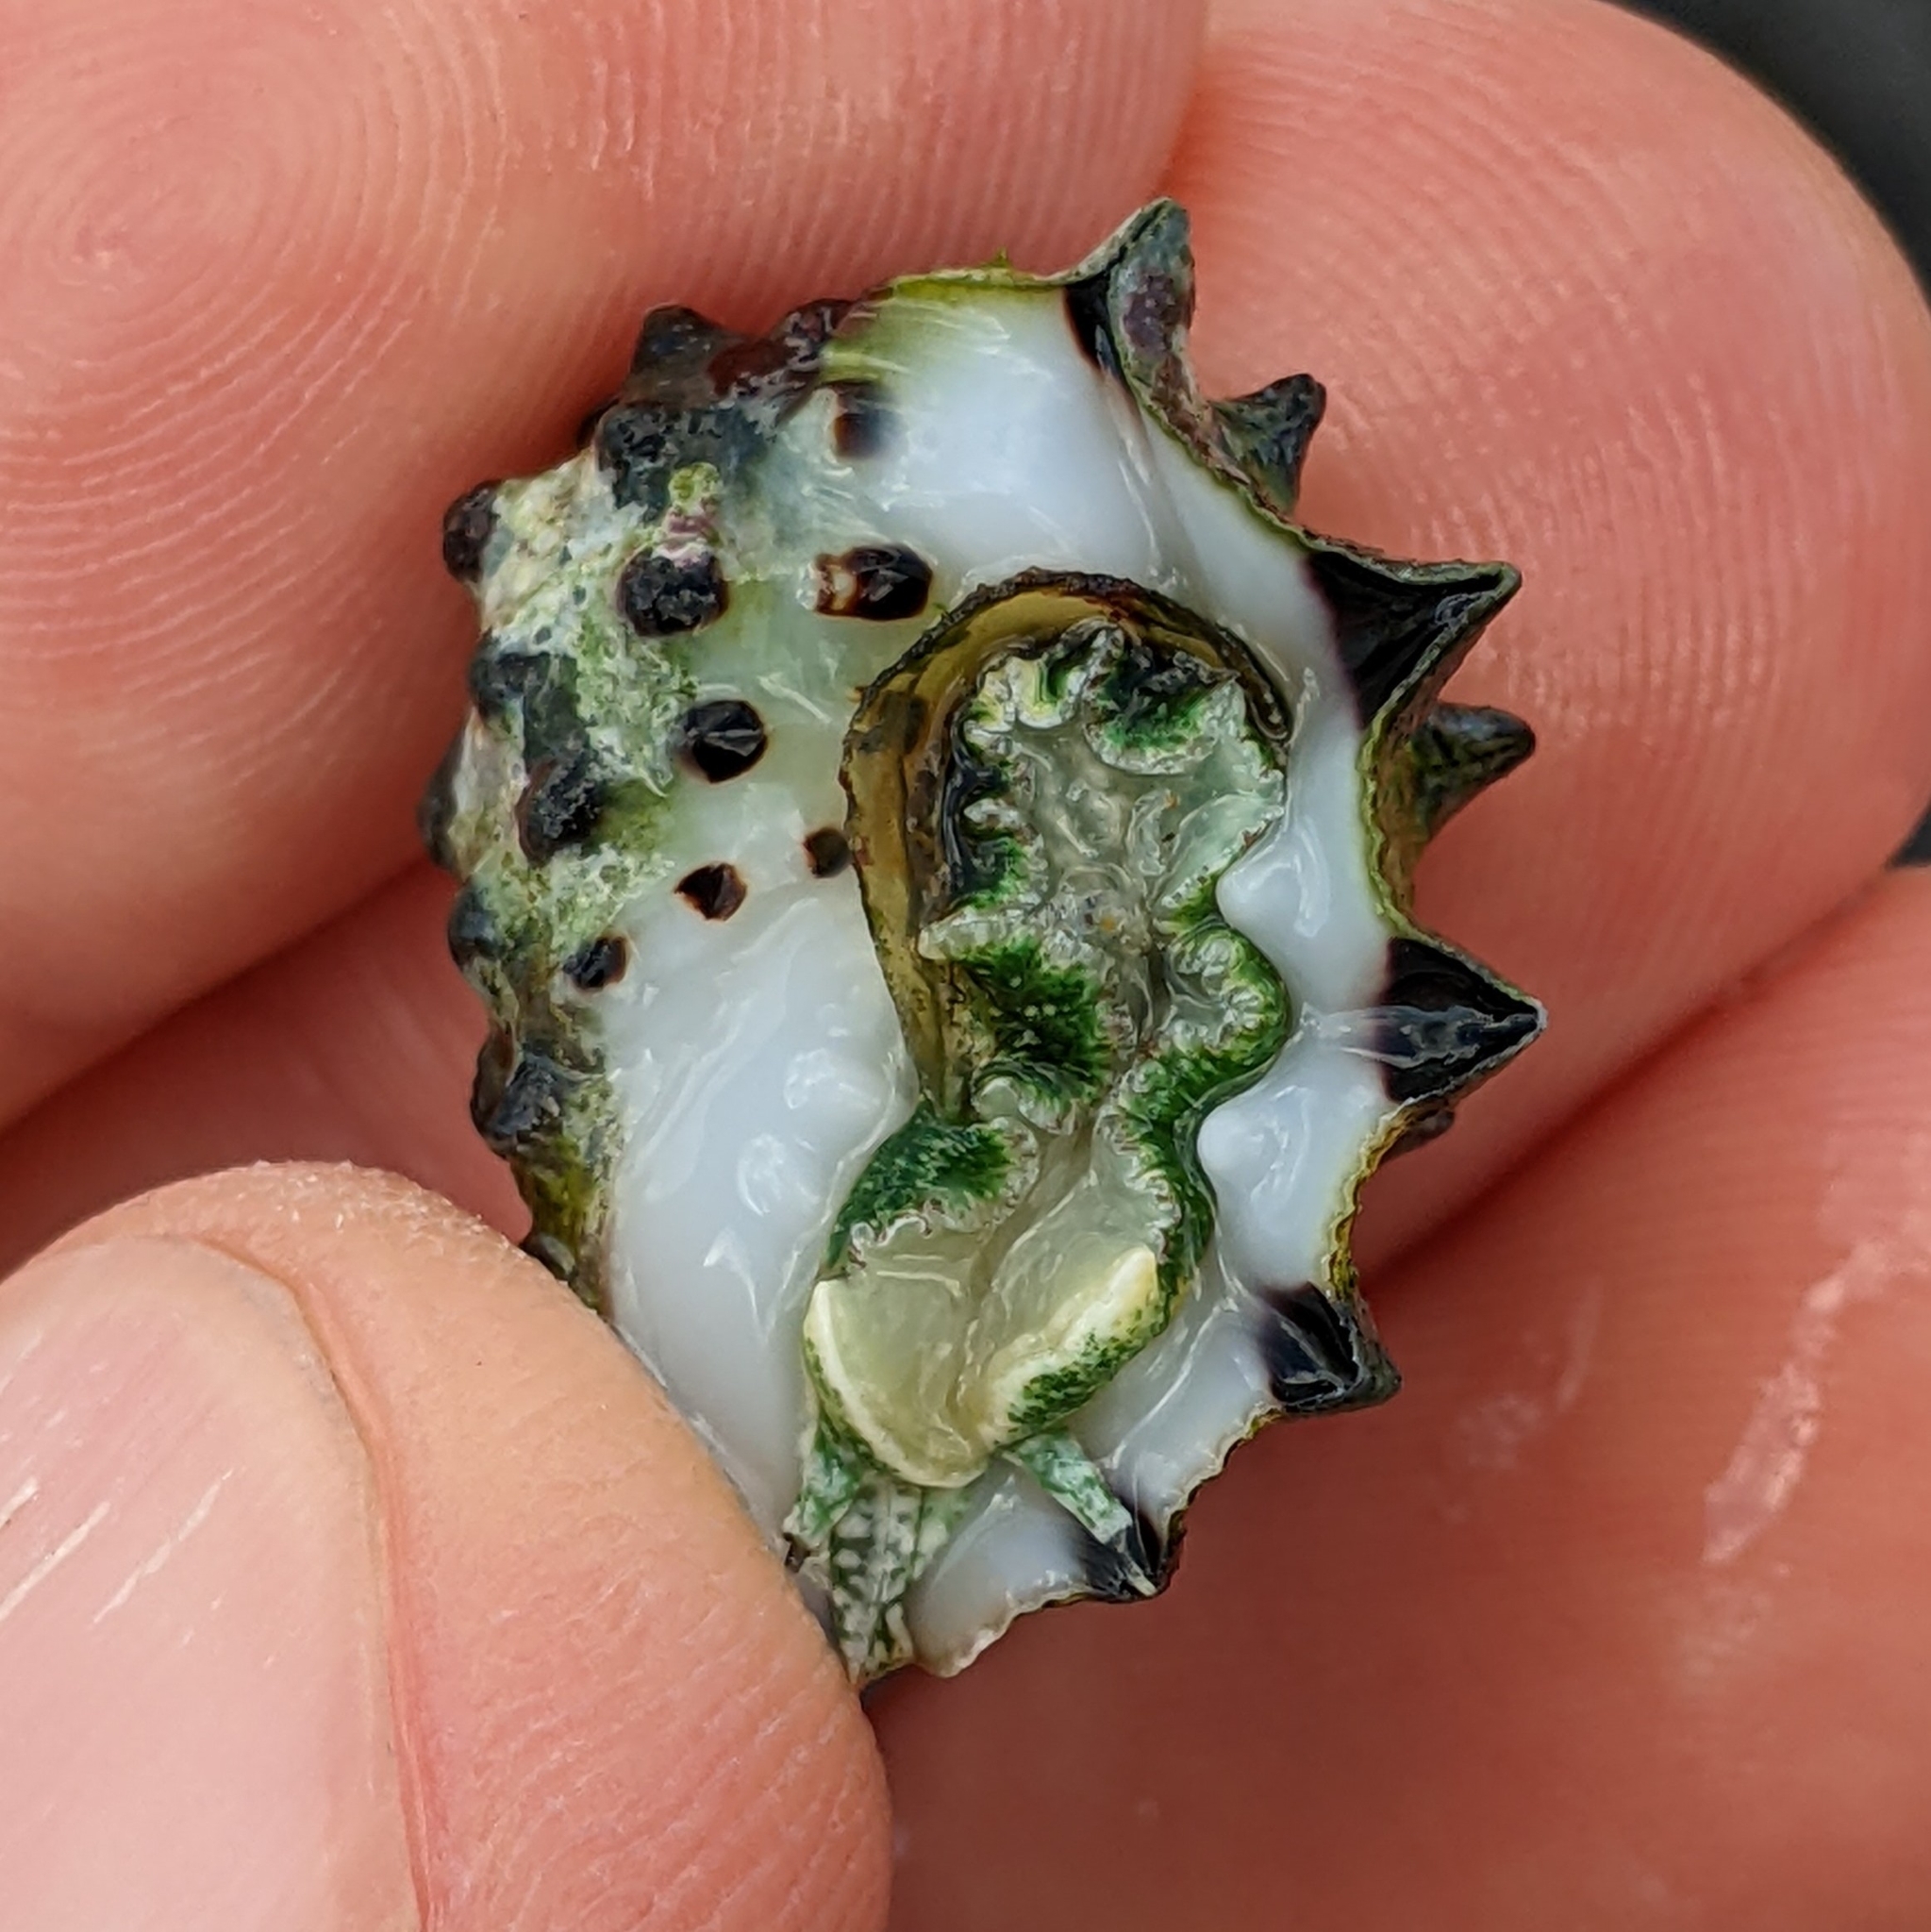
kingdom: Animalia
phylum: Mollusca
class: Gastropoda
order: Neogastropoda
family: Muricidae
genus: Drupa
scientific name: Drupa ricinus
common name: White-lipped castor bean
